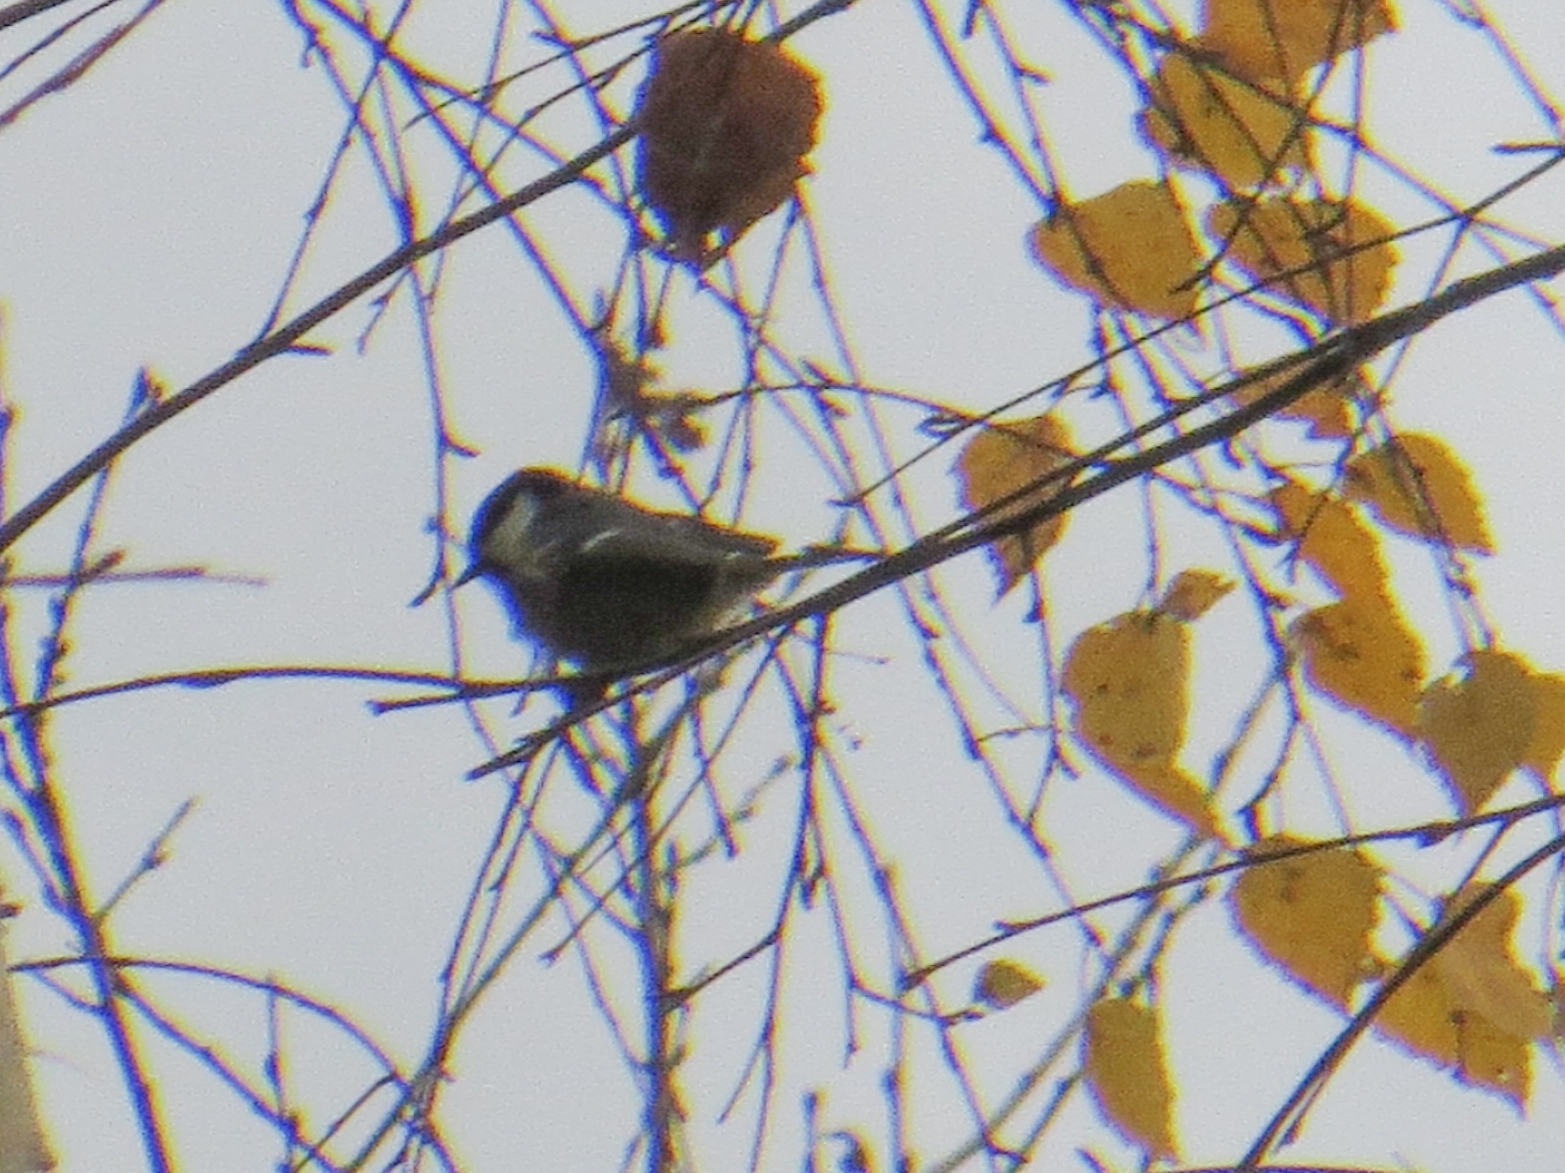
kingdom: Animalia
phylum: Chordata
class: Aves
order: Passeriformes
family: Paridae
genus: Periparus
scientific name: Periparus ater
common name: Coal tit
